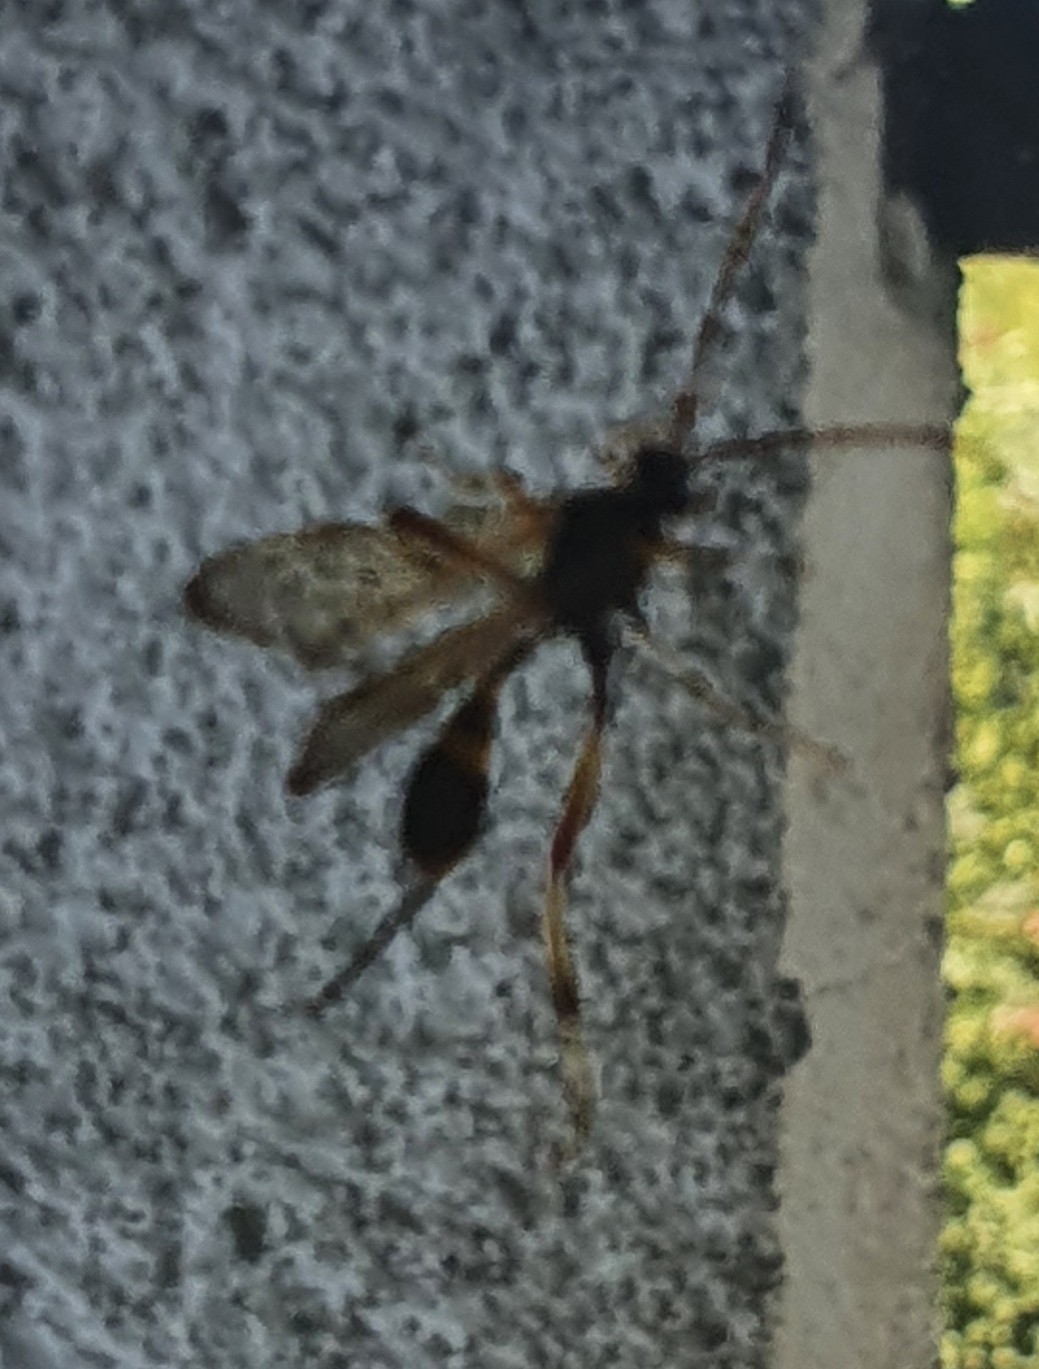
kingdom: Animalia
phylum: Arthropoda
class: Insecta
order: Hymenoptera
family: Ichneumonidae
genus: Acroricnus
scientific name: Acroricnus seductor
